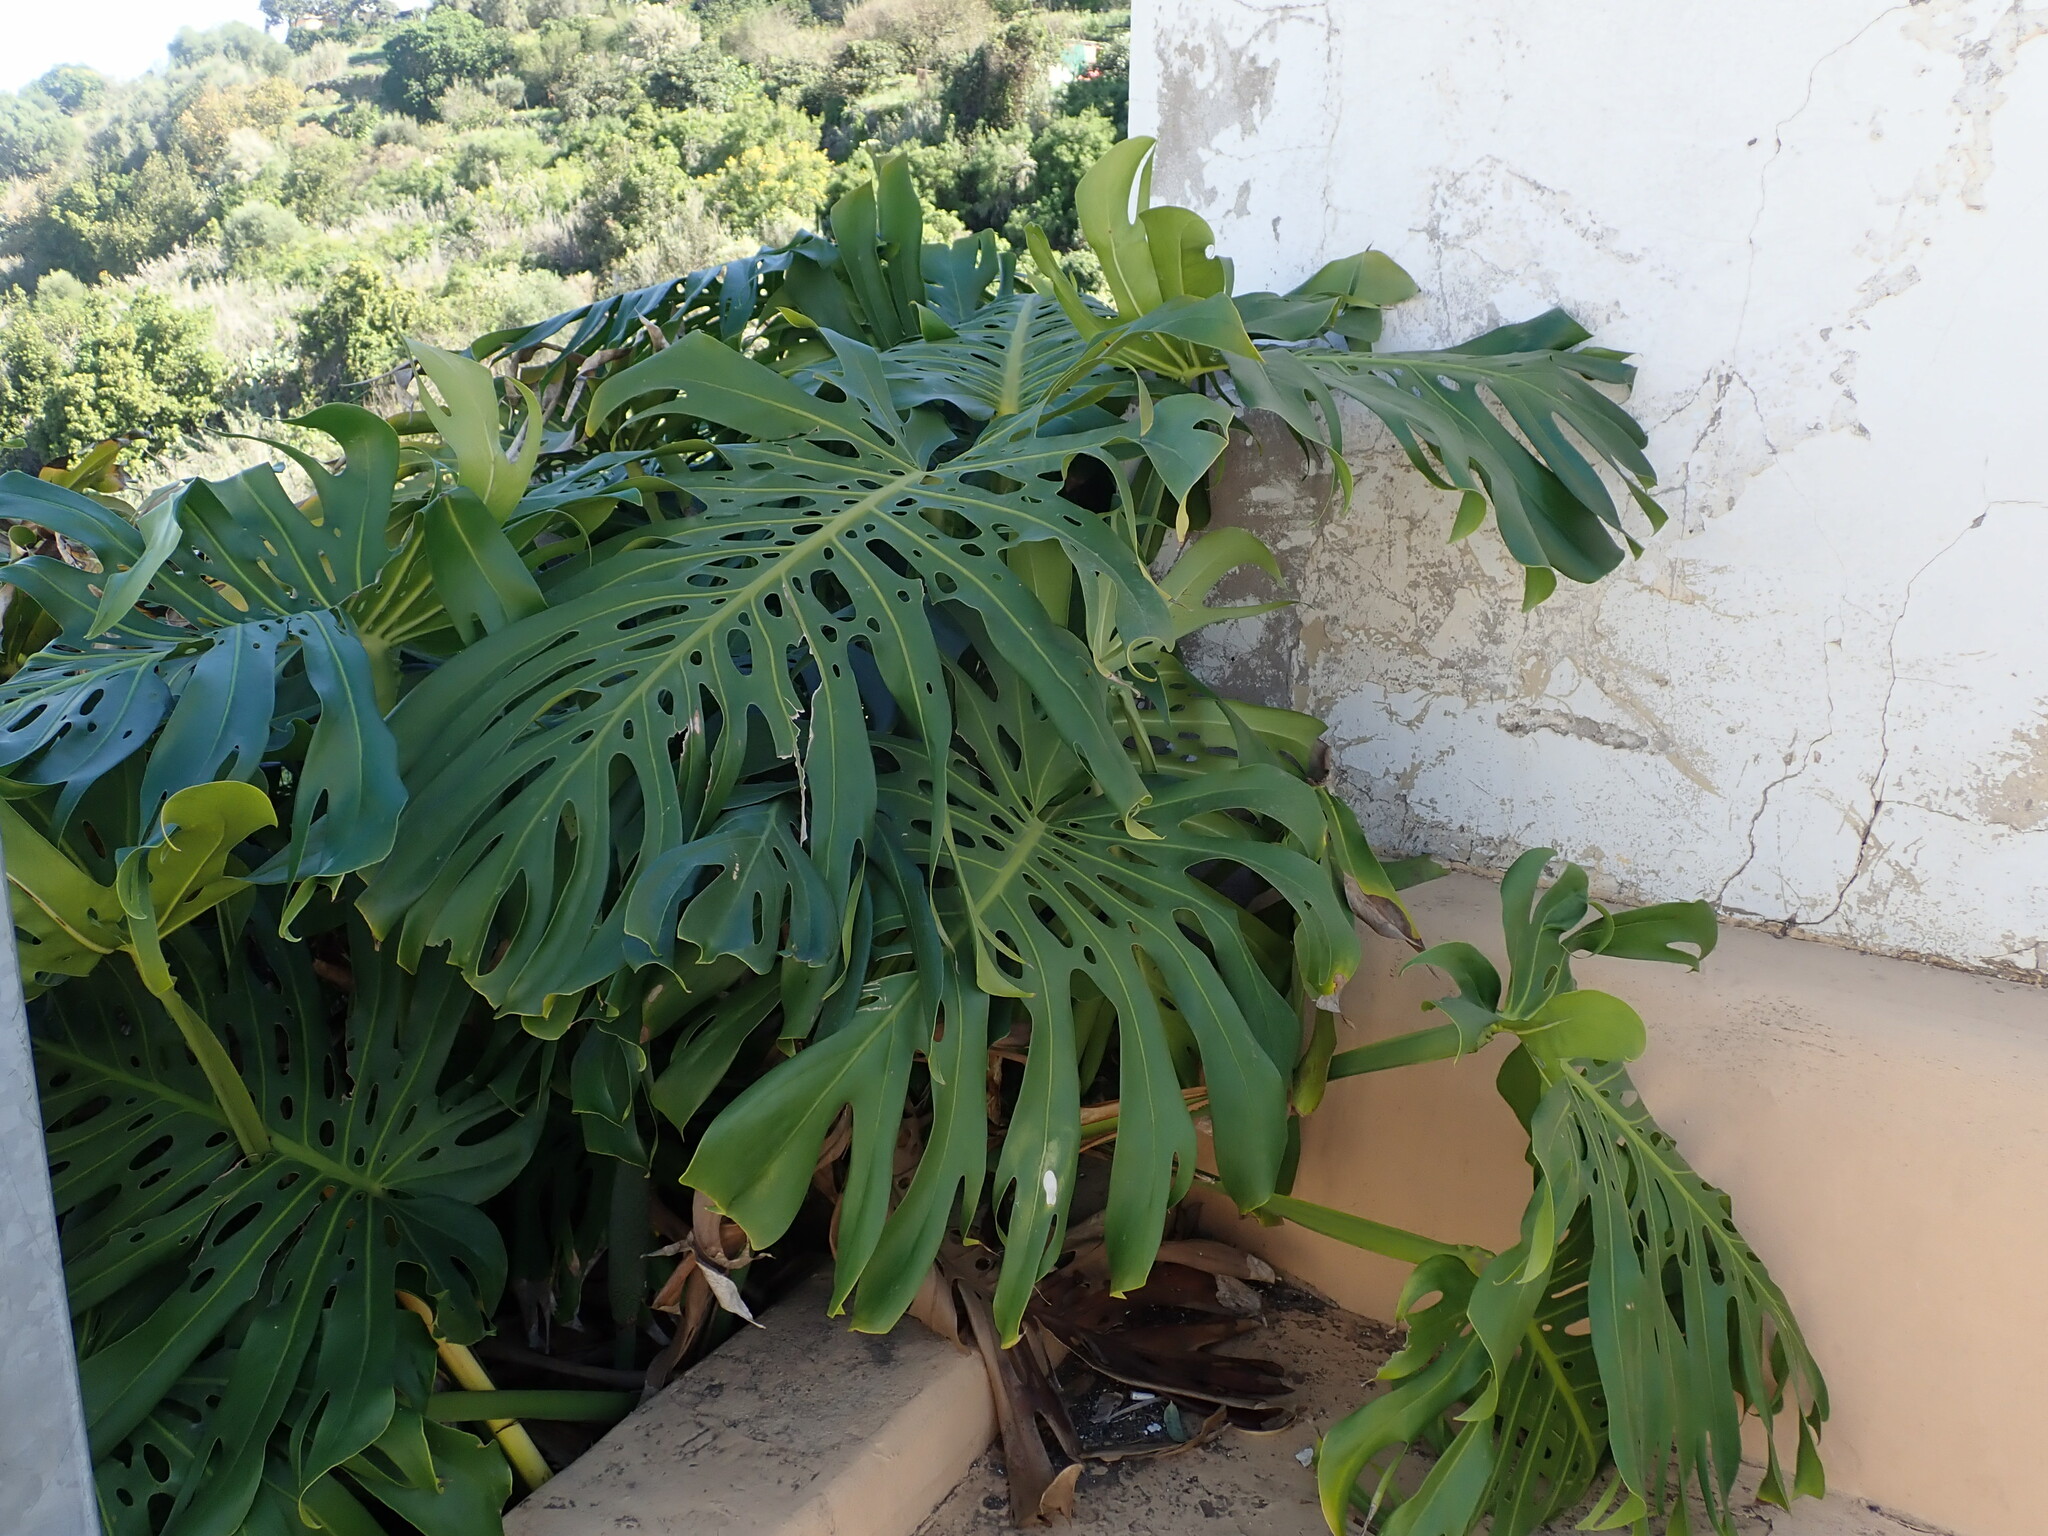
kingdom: Plantae
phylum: Tracheophyta
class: Liliopsida
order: Alismatales
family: Araceae
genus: Monstera
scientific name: Monstera deliciosa
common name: Cut-leaf-philodendron
